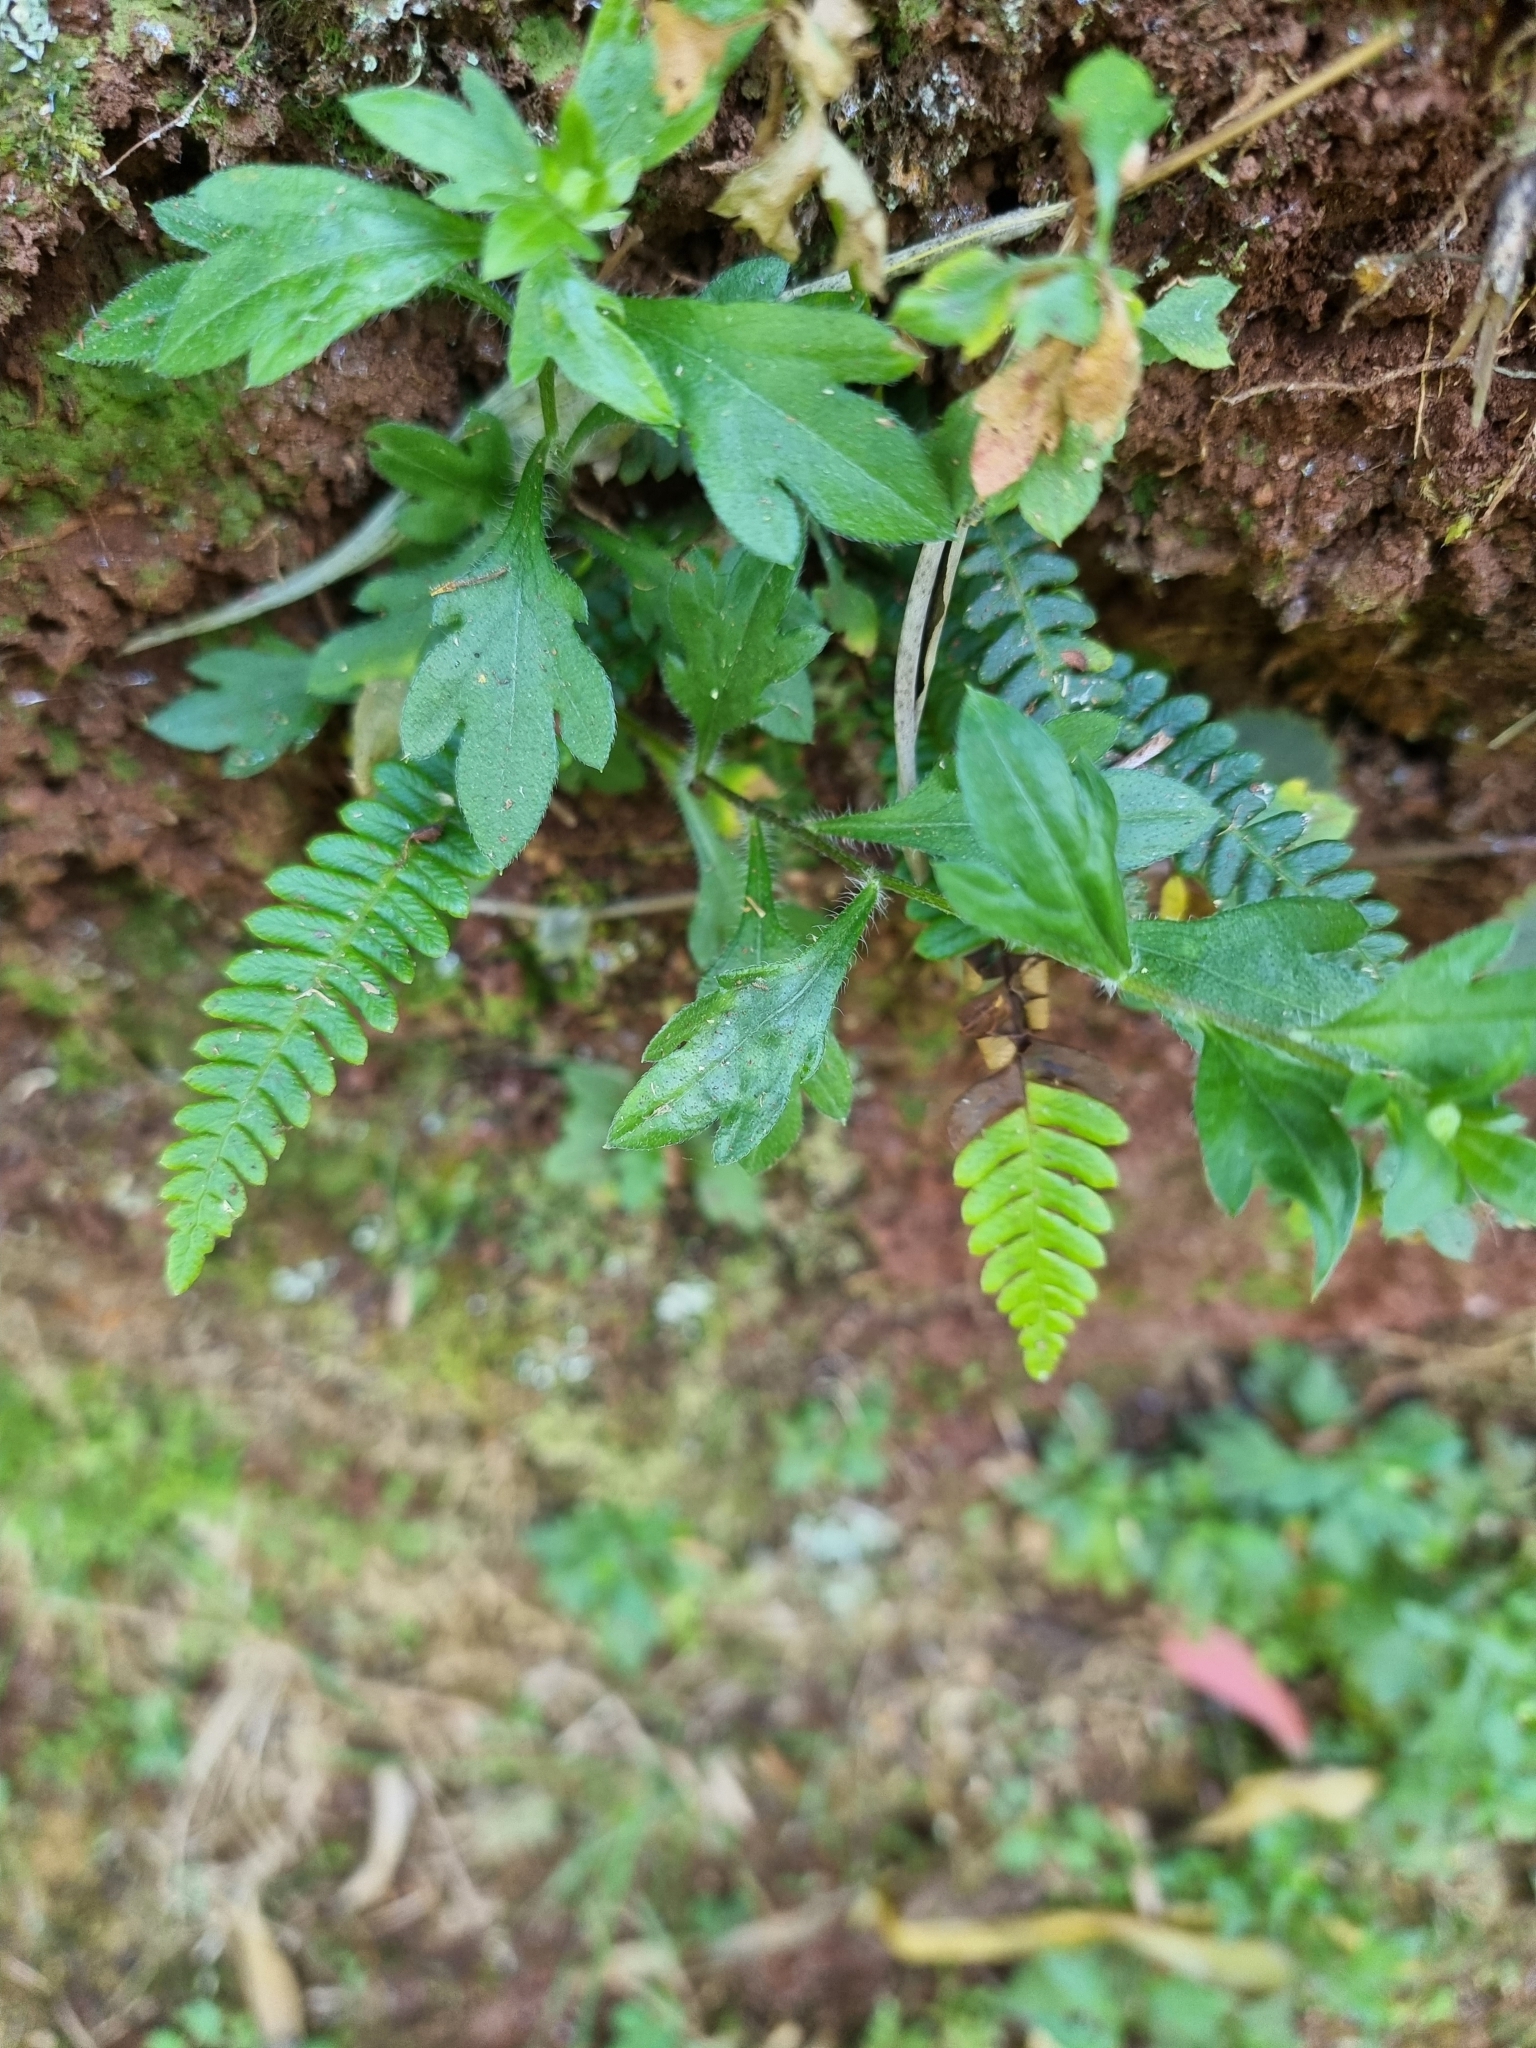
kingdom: Plantae
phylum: Tracheophyta
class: Polypodiopsida
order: Polypodiales
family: Blechnaceae
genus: Struthiopteris
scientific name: Struthiopteris spicant
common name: Deer fern
